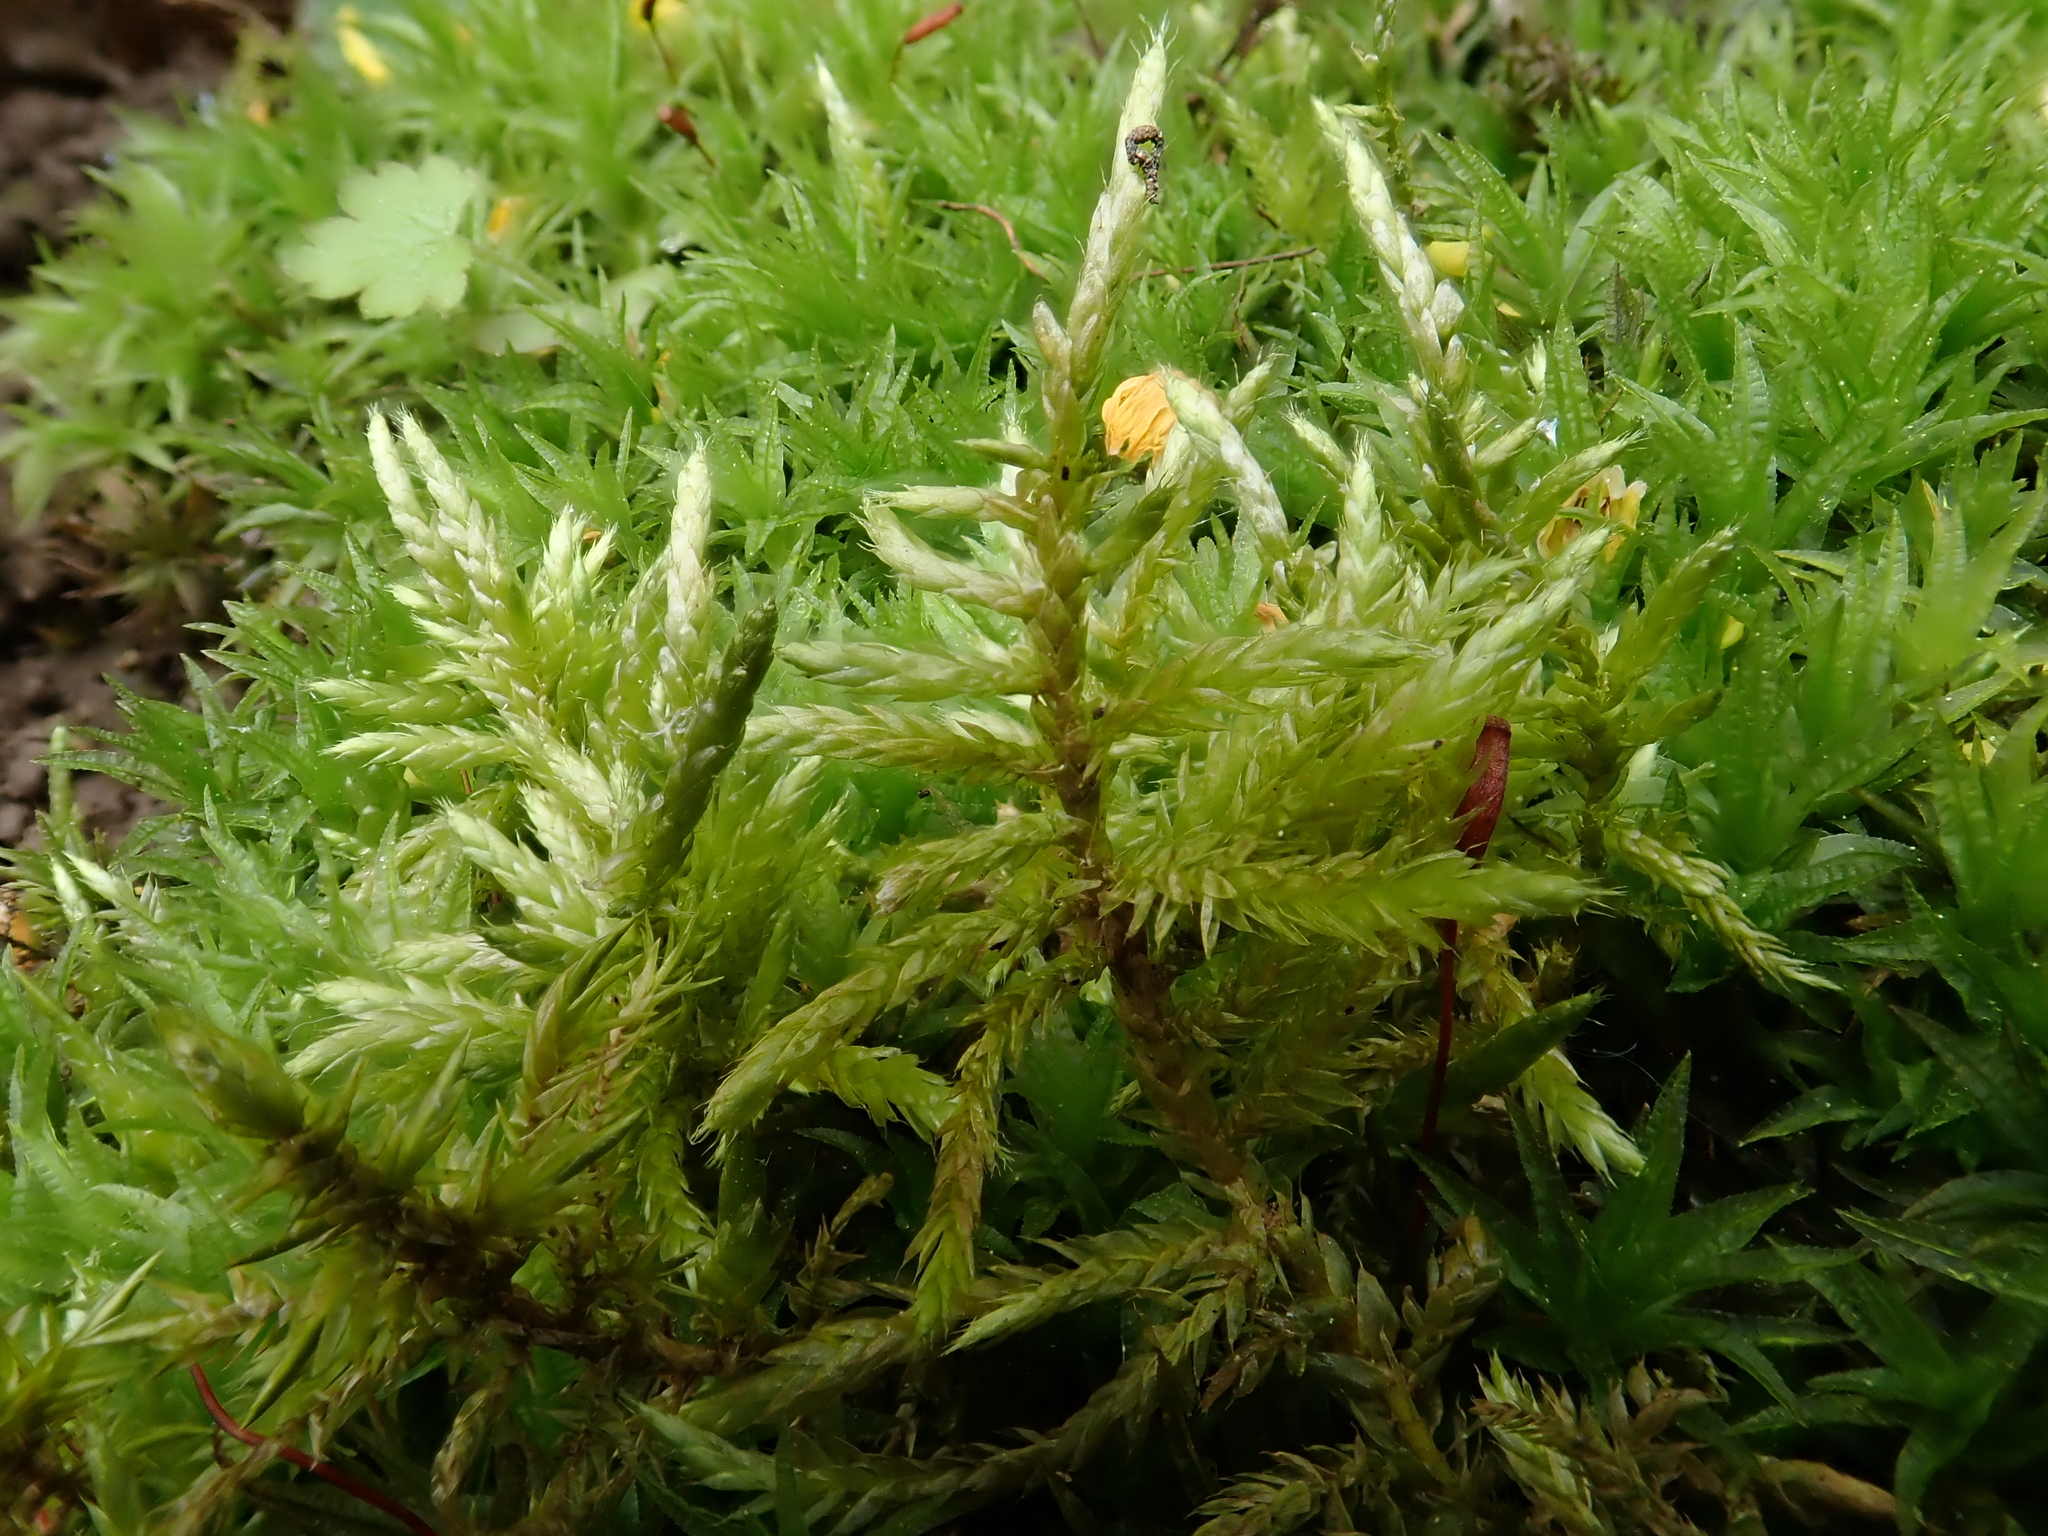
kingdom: Plantae
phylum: Bryophyta
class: Bryopsida
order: Hypnales
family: Brachytheciaceae
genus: Cirriphyllum
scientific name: Cirriphyllum piliferum
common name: Hair-pointed moss
